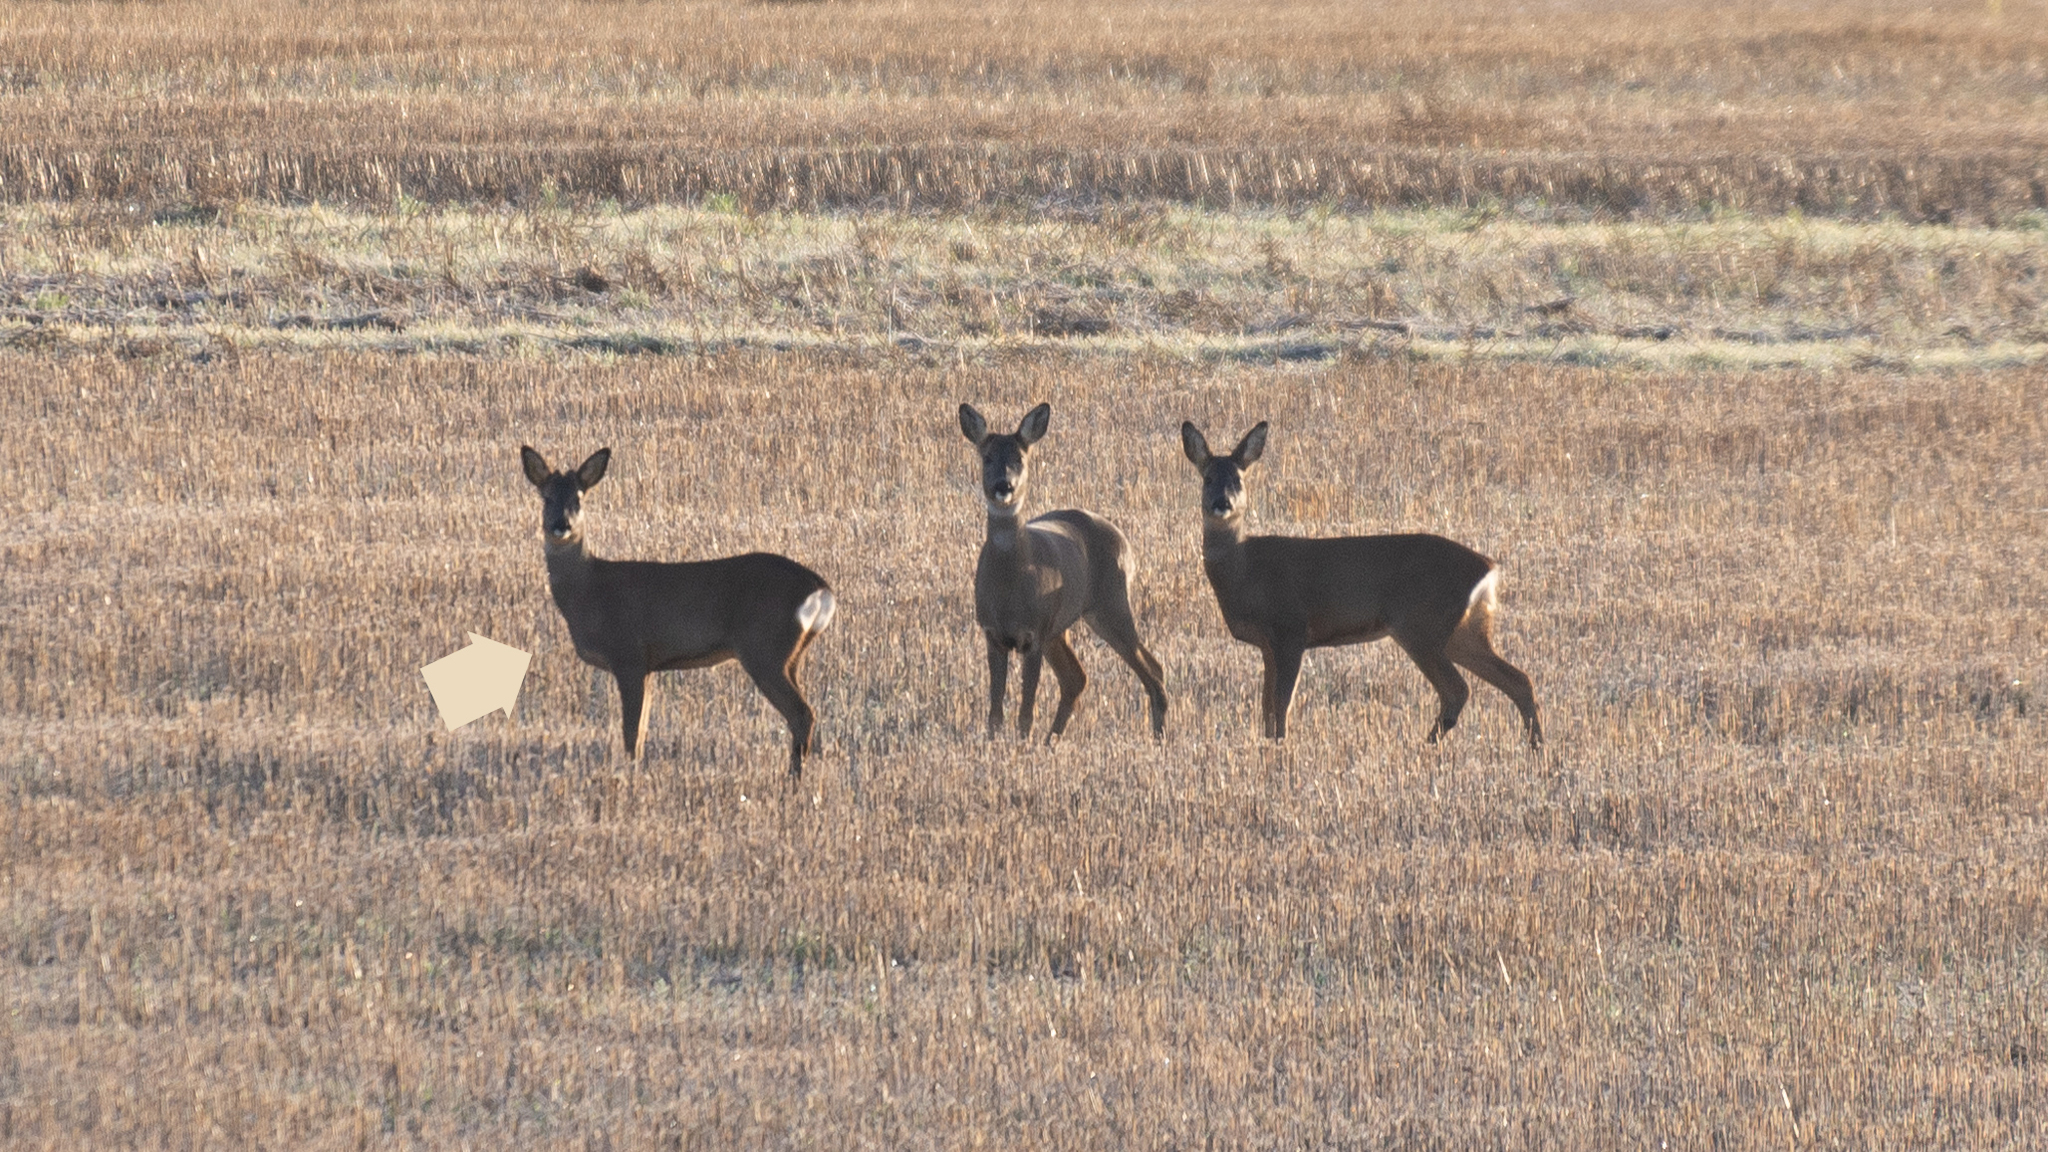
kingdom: Animalia
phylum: Chordata
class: Mammalia
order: Artiodactyla
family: Cervidae
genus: Capreolus
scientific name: Capreolus capreolus
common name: Western roe deer
